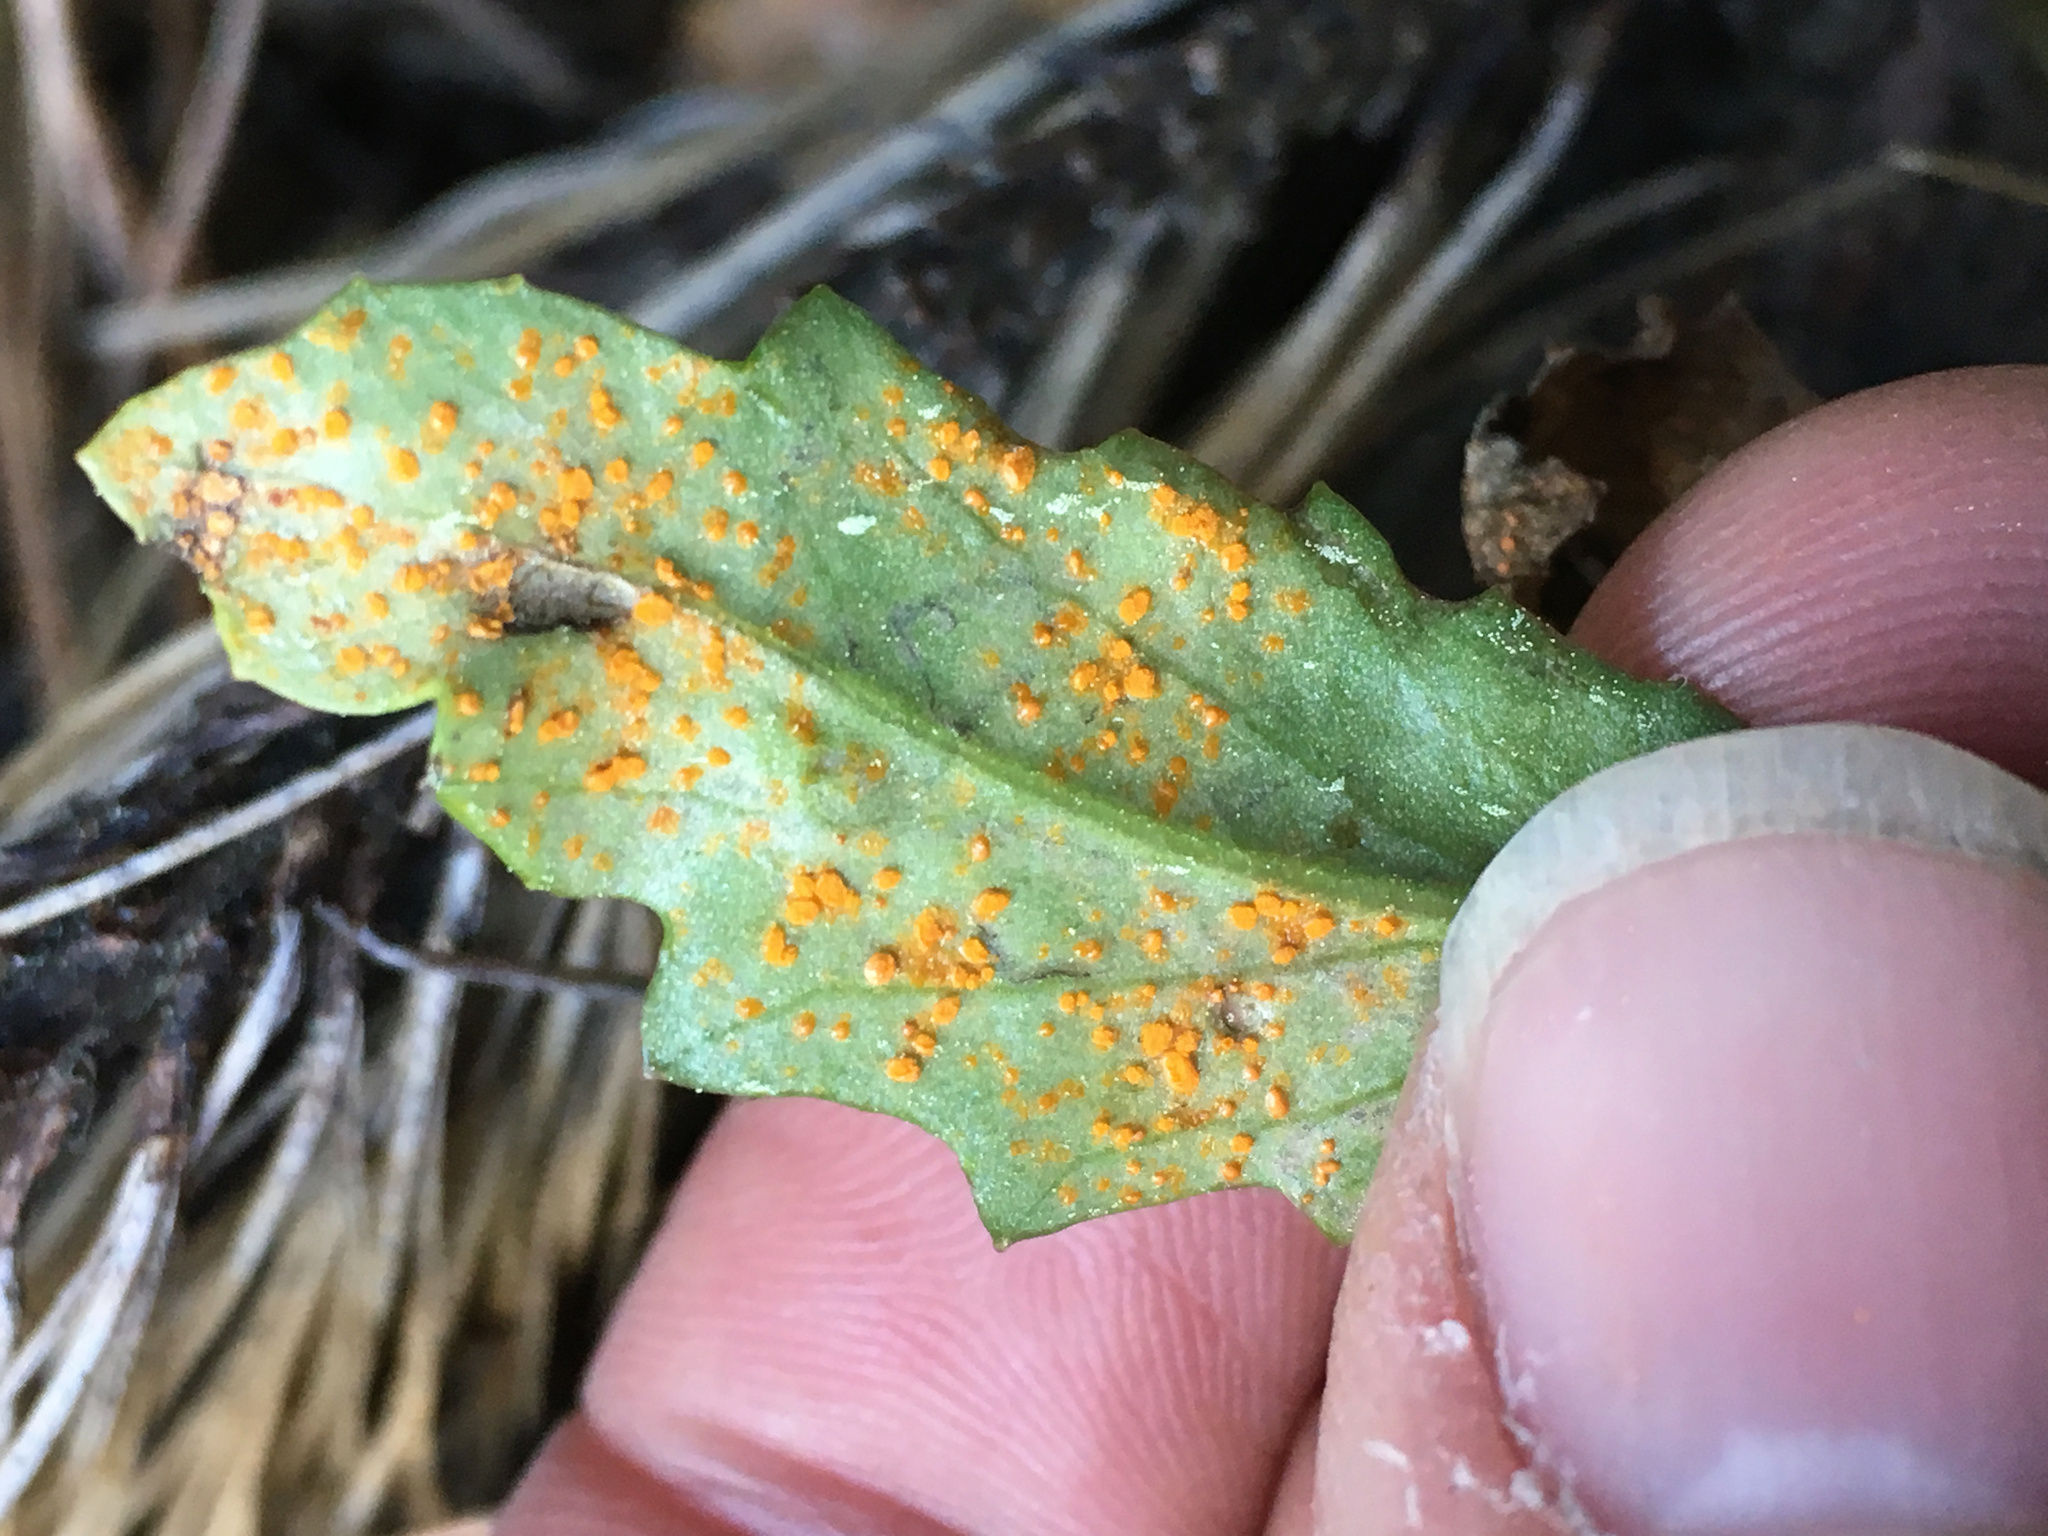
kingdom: Fungi
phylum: Basidiomycota
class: Pucciniomycetes
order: Pucciniales
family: Coleosporiaceae
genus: Coleosporium
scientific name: Coleosporium tussilaginis
